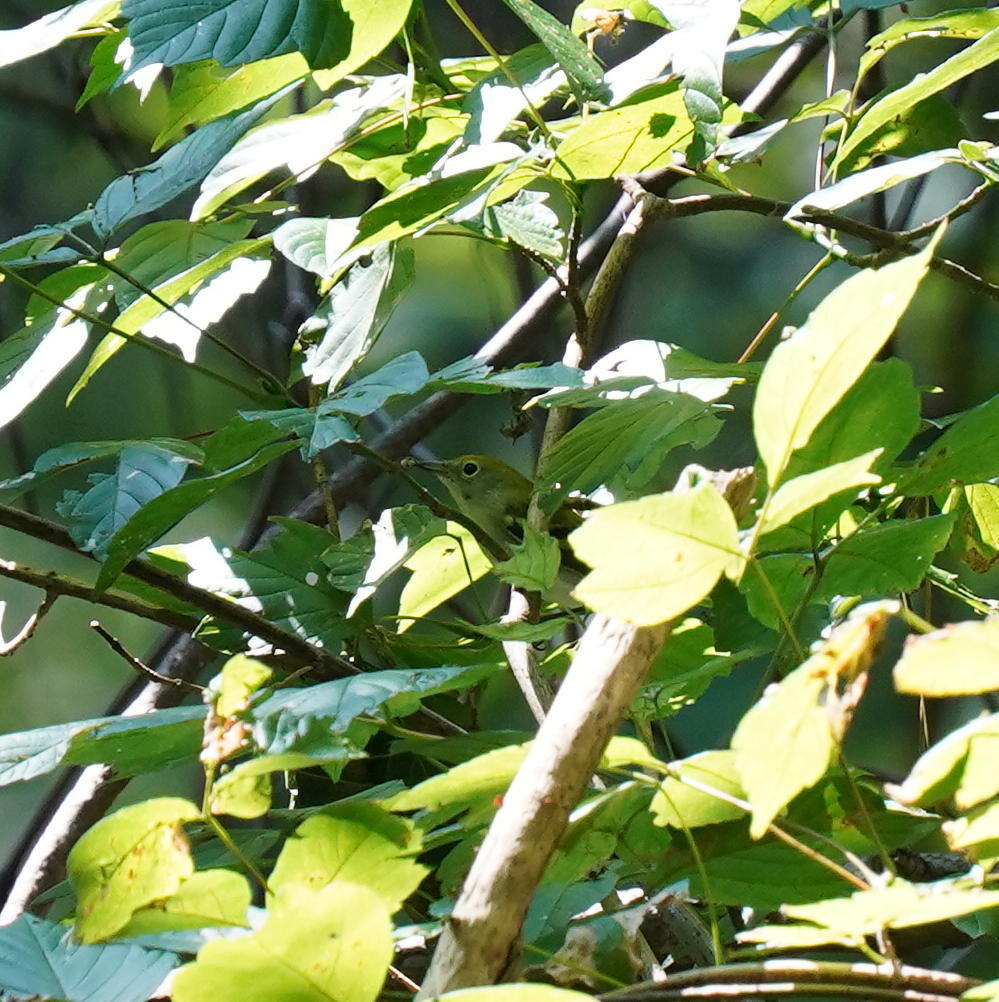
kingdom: Animalia
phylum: Chordata
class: Aves
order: Passeriformes
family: Parulidae
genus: Setophaga
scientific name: Setophaga pensylvanica
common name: Chestnut-sided warbler
